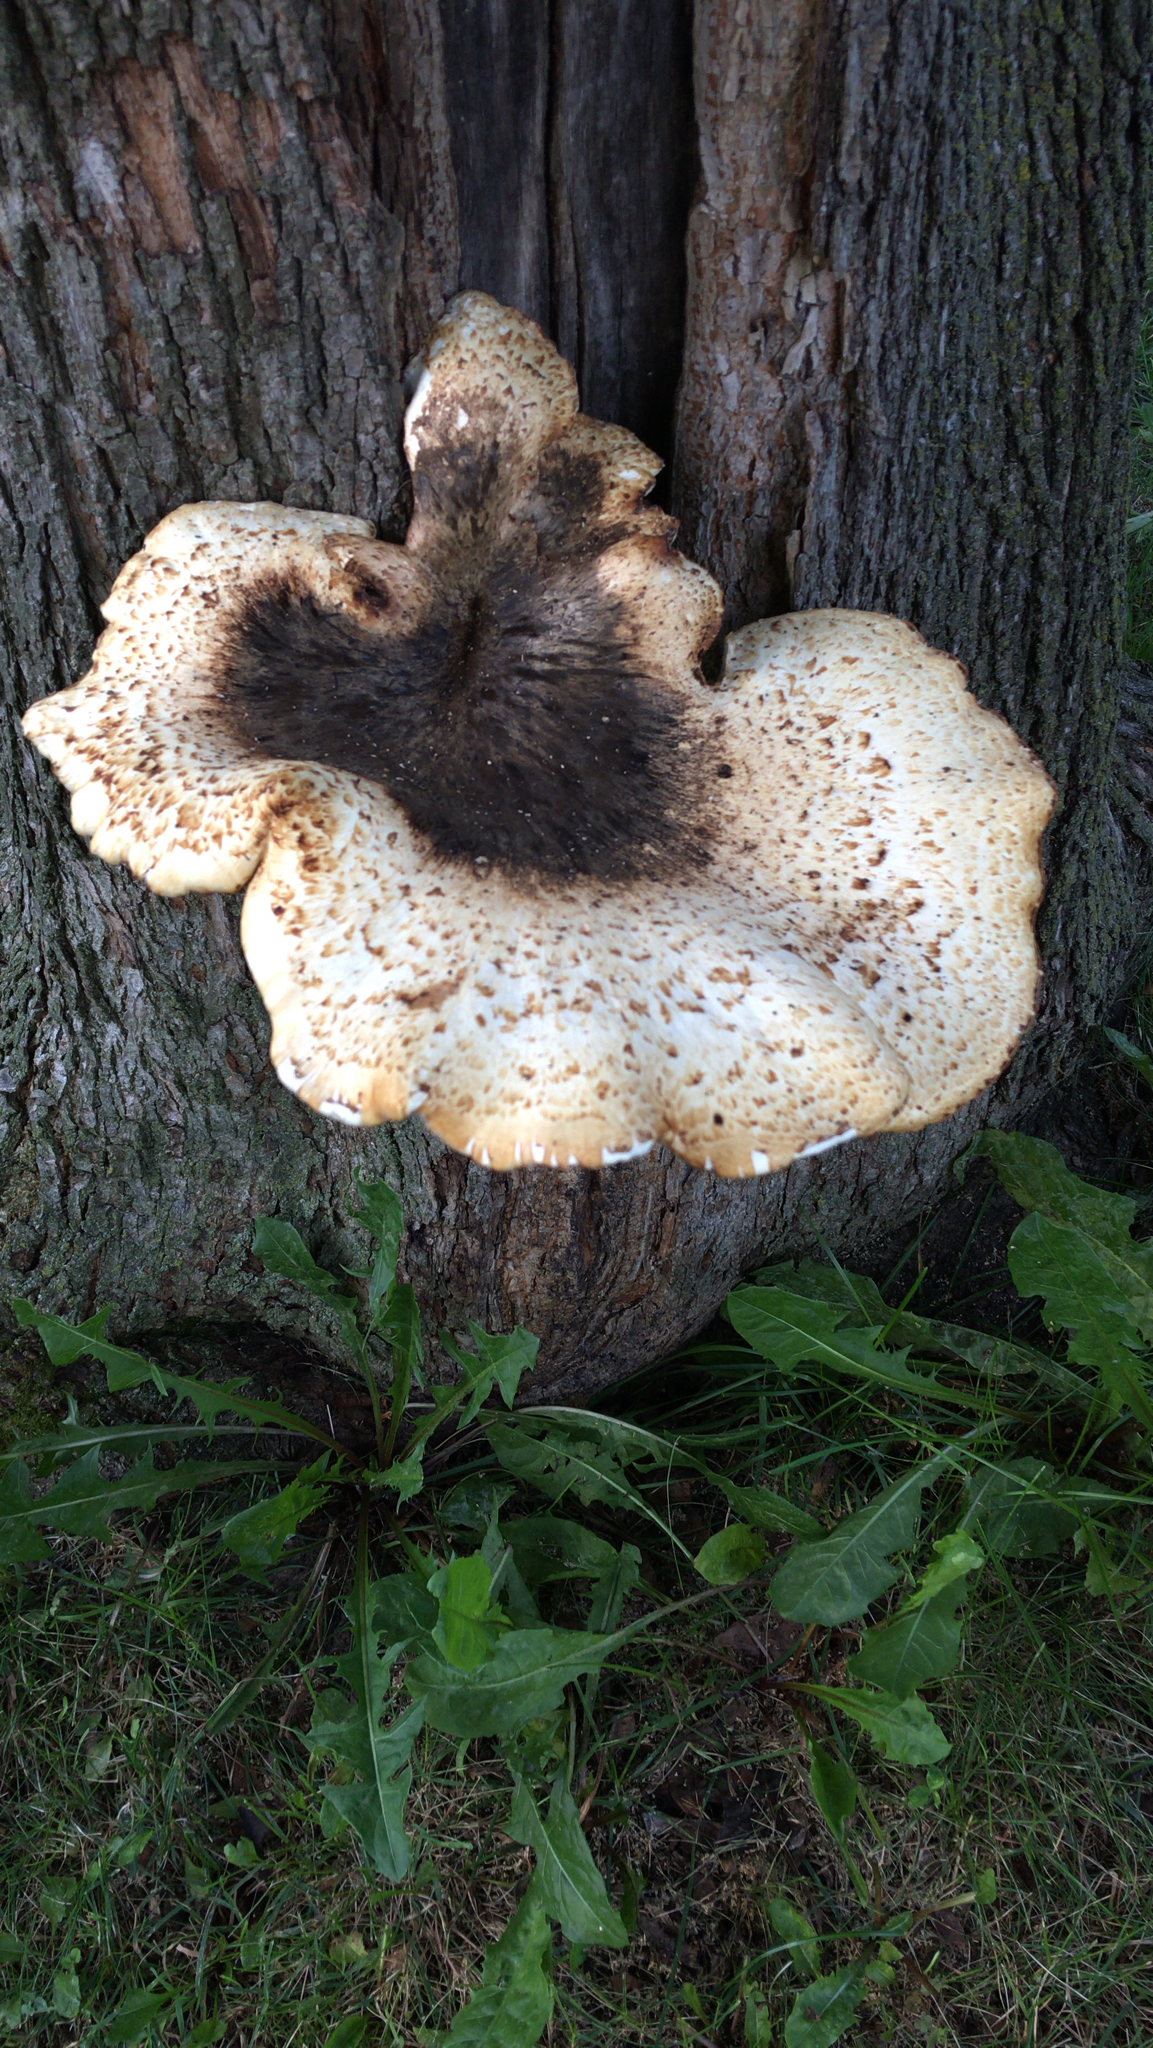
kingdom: Fungi
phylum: Basidiomycota
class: Agaricomycetes
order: Polyporales
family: Polyporaceae
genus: Cerioporus
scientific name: Cerioporus squamosus
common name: Dryad's saddle
